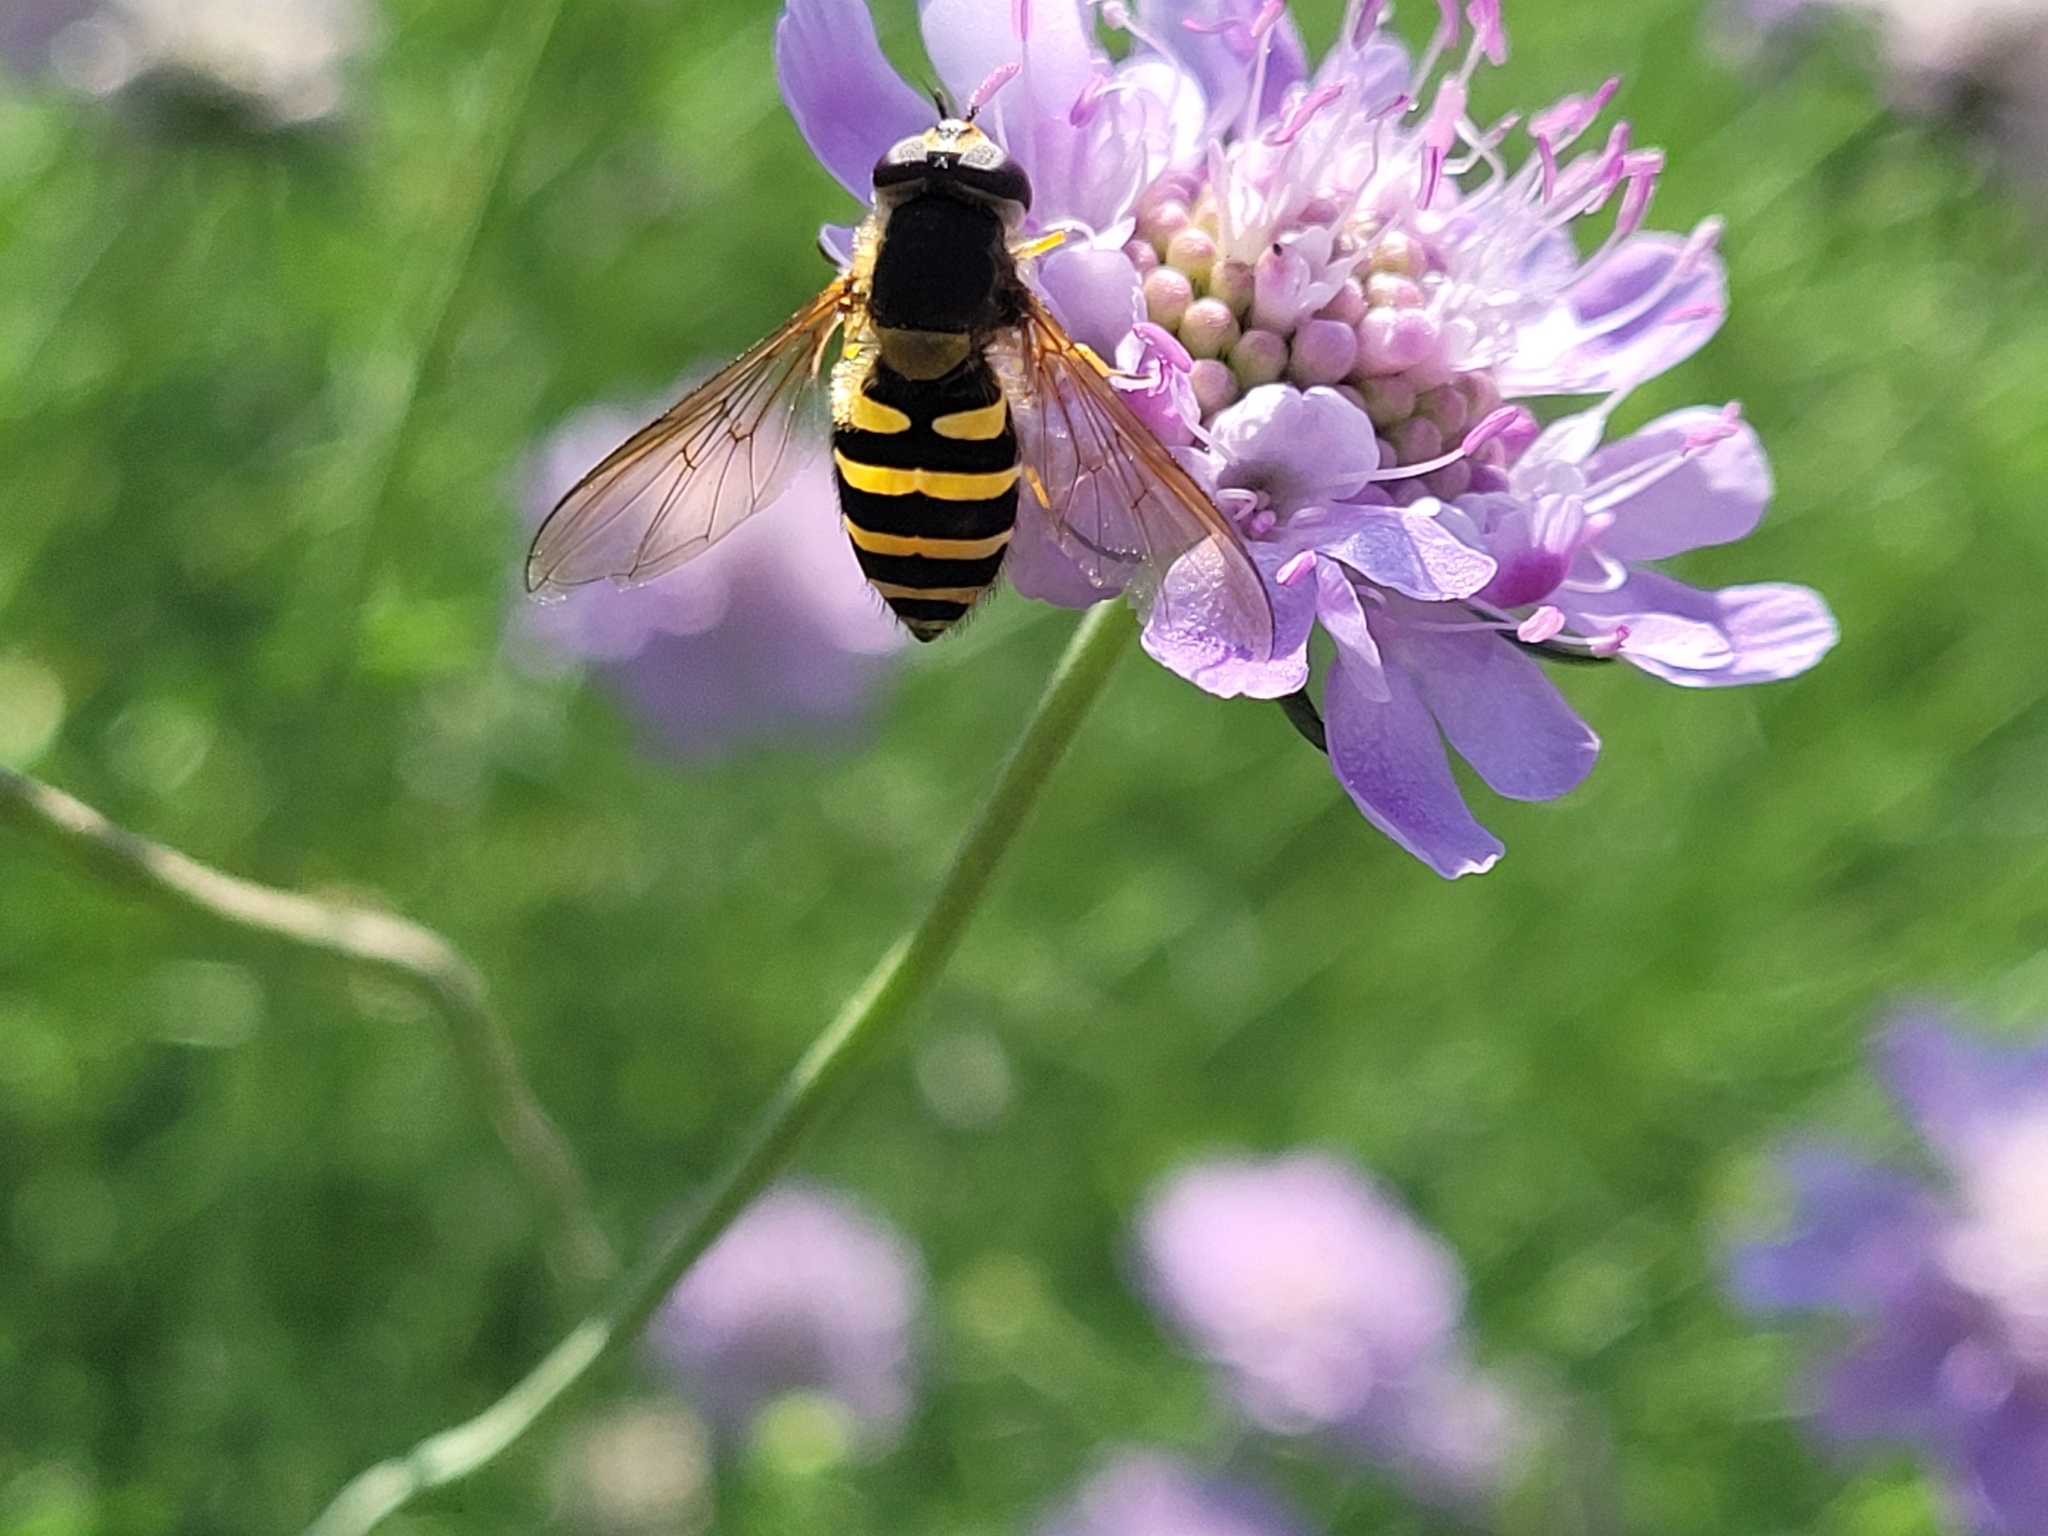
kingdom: Animalia
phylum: Arthropoda
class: Insecta
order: Diptera
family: Syrphidae
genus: Syrphus
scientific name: Syrphus
